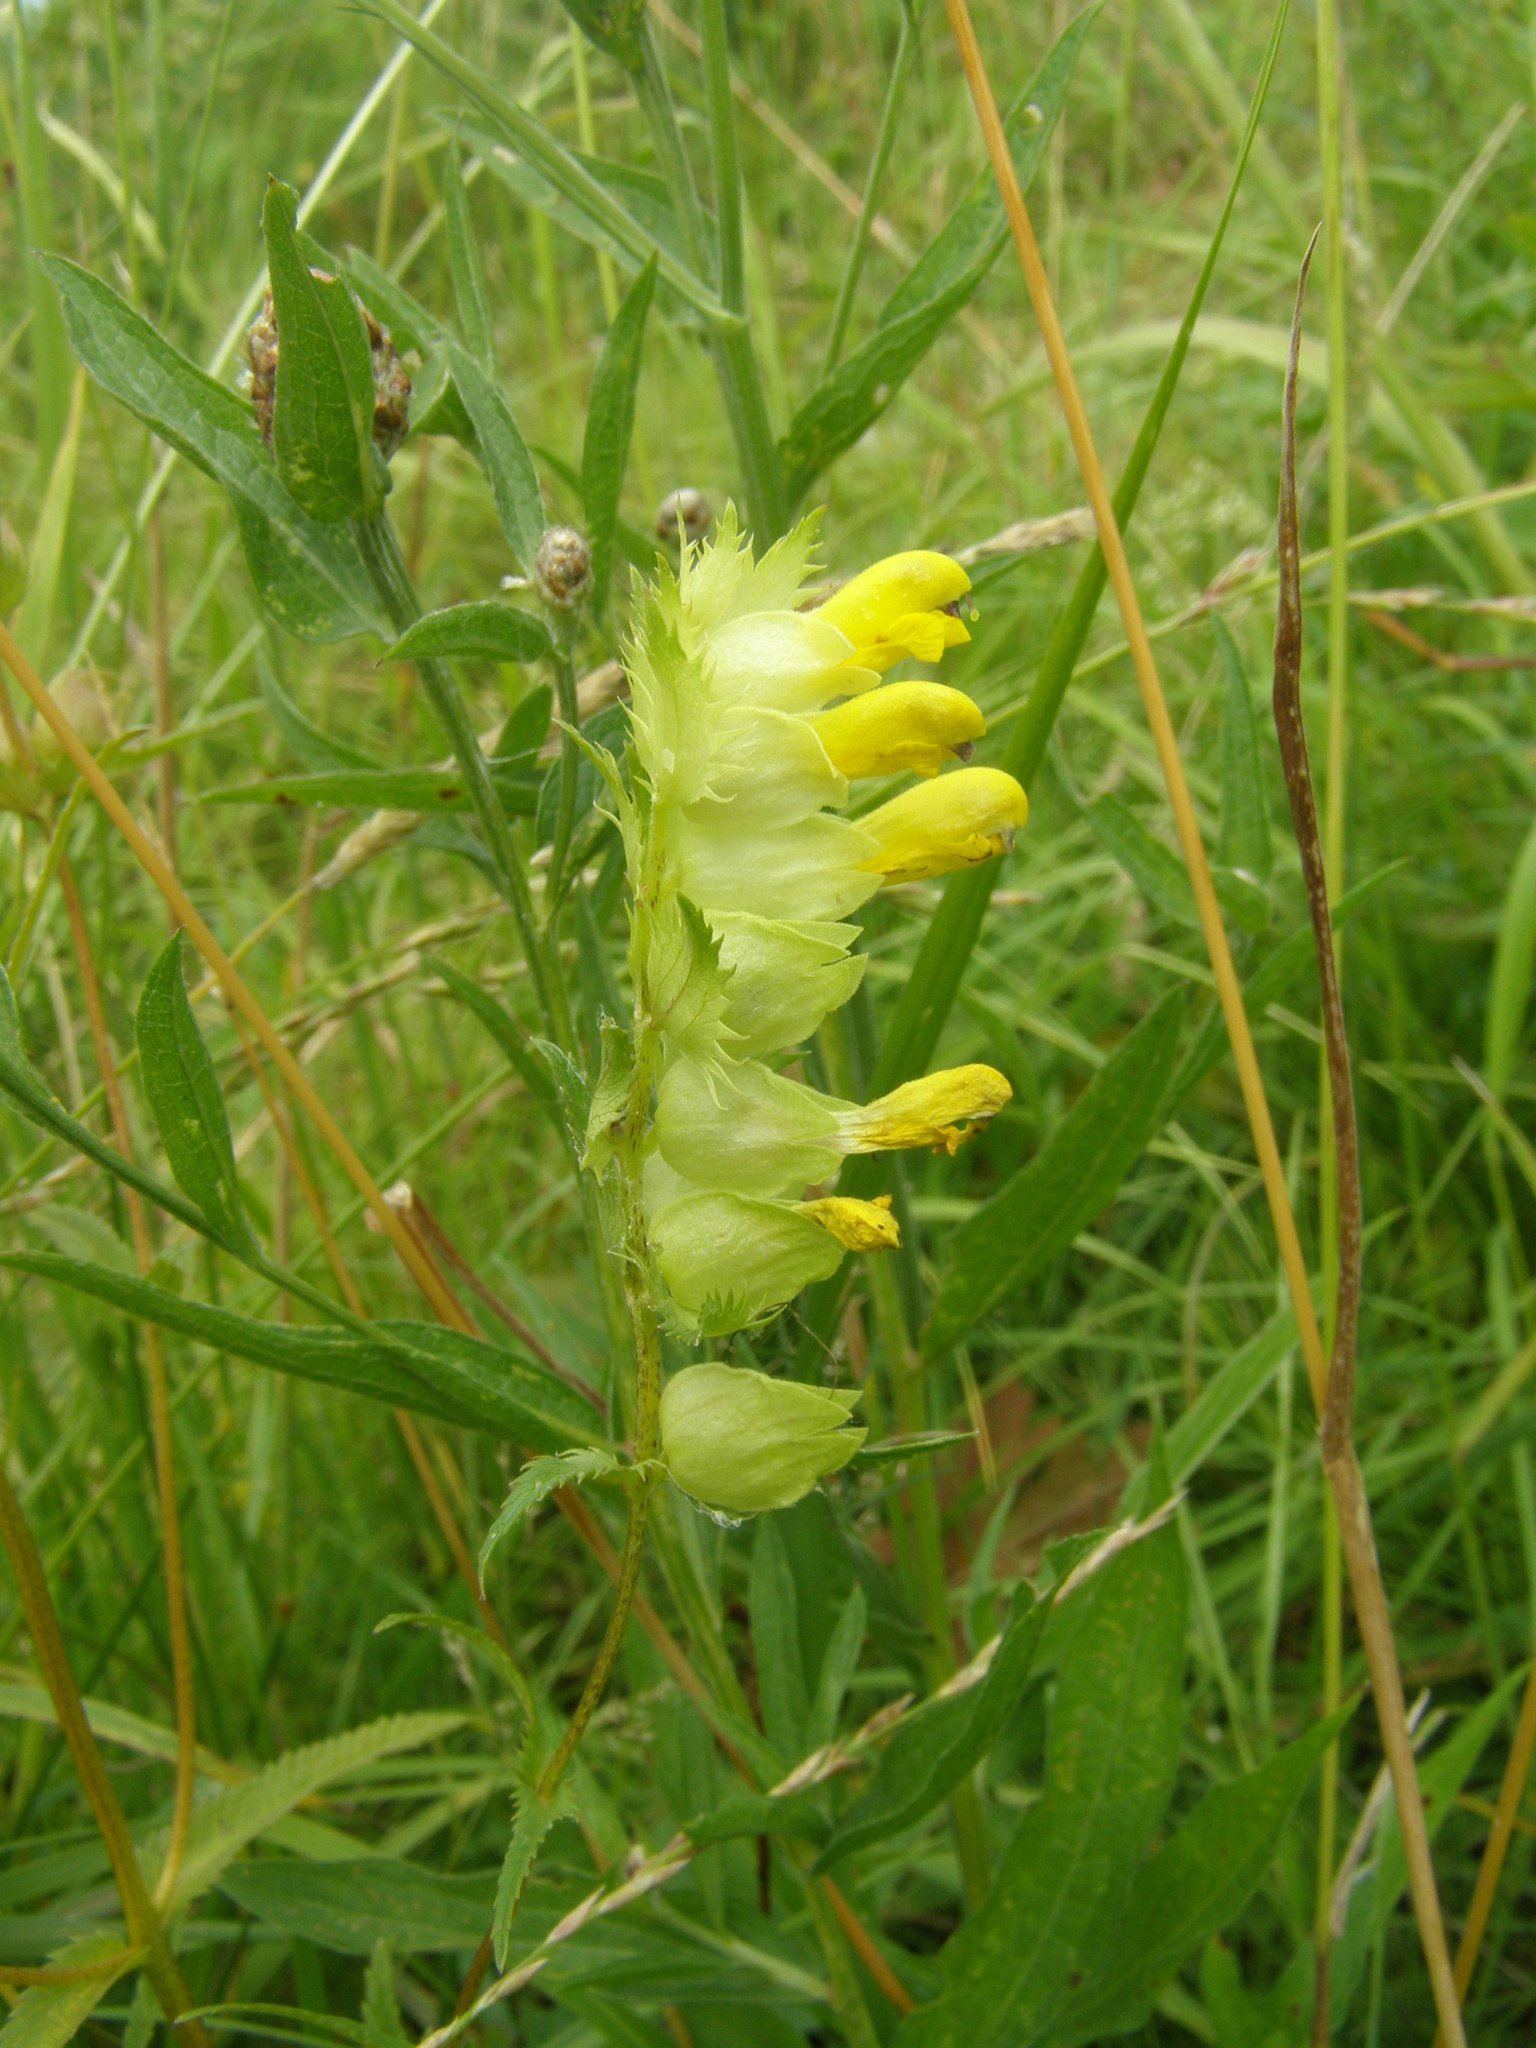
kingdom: Plantae
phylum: Tracheophyta
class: Magnoliopsida
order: Lamiales
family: Orobanchaceae
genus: Rhinanthus
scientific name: Rhinanthus serotinus
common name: Late-flowering yellow rattle
